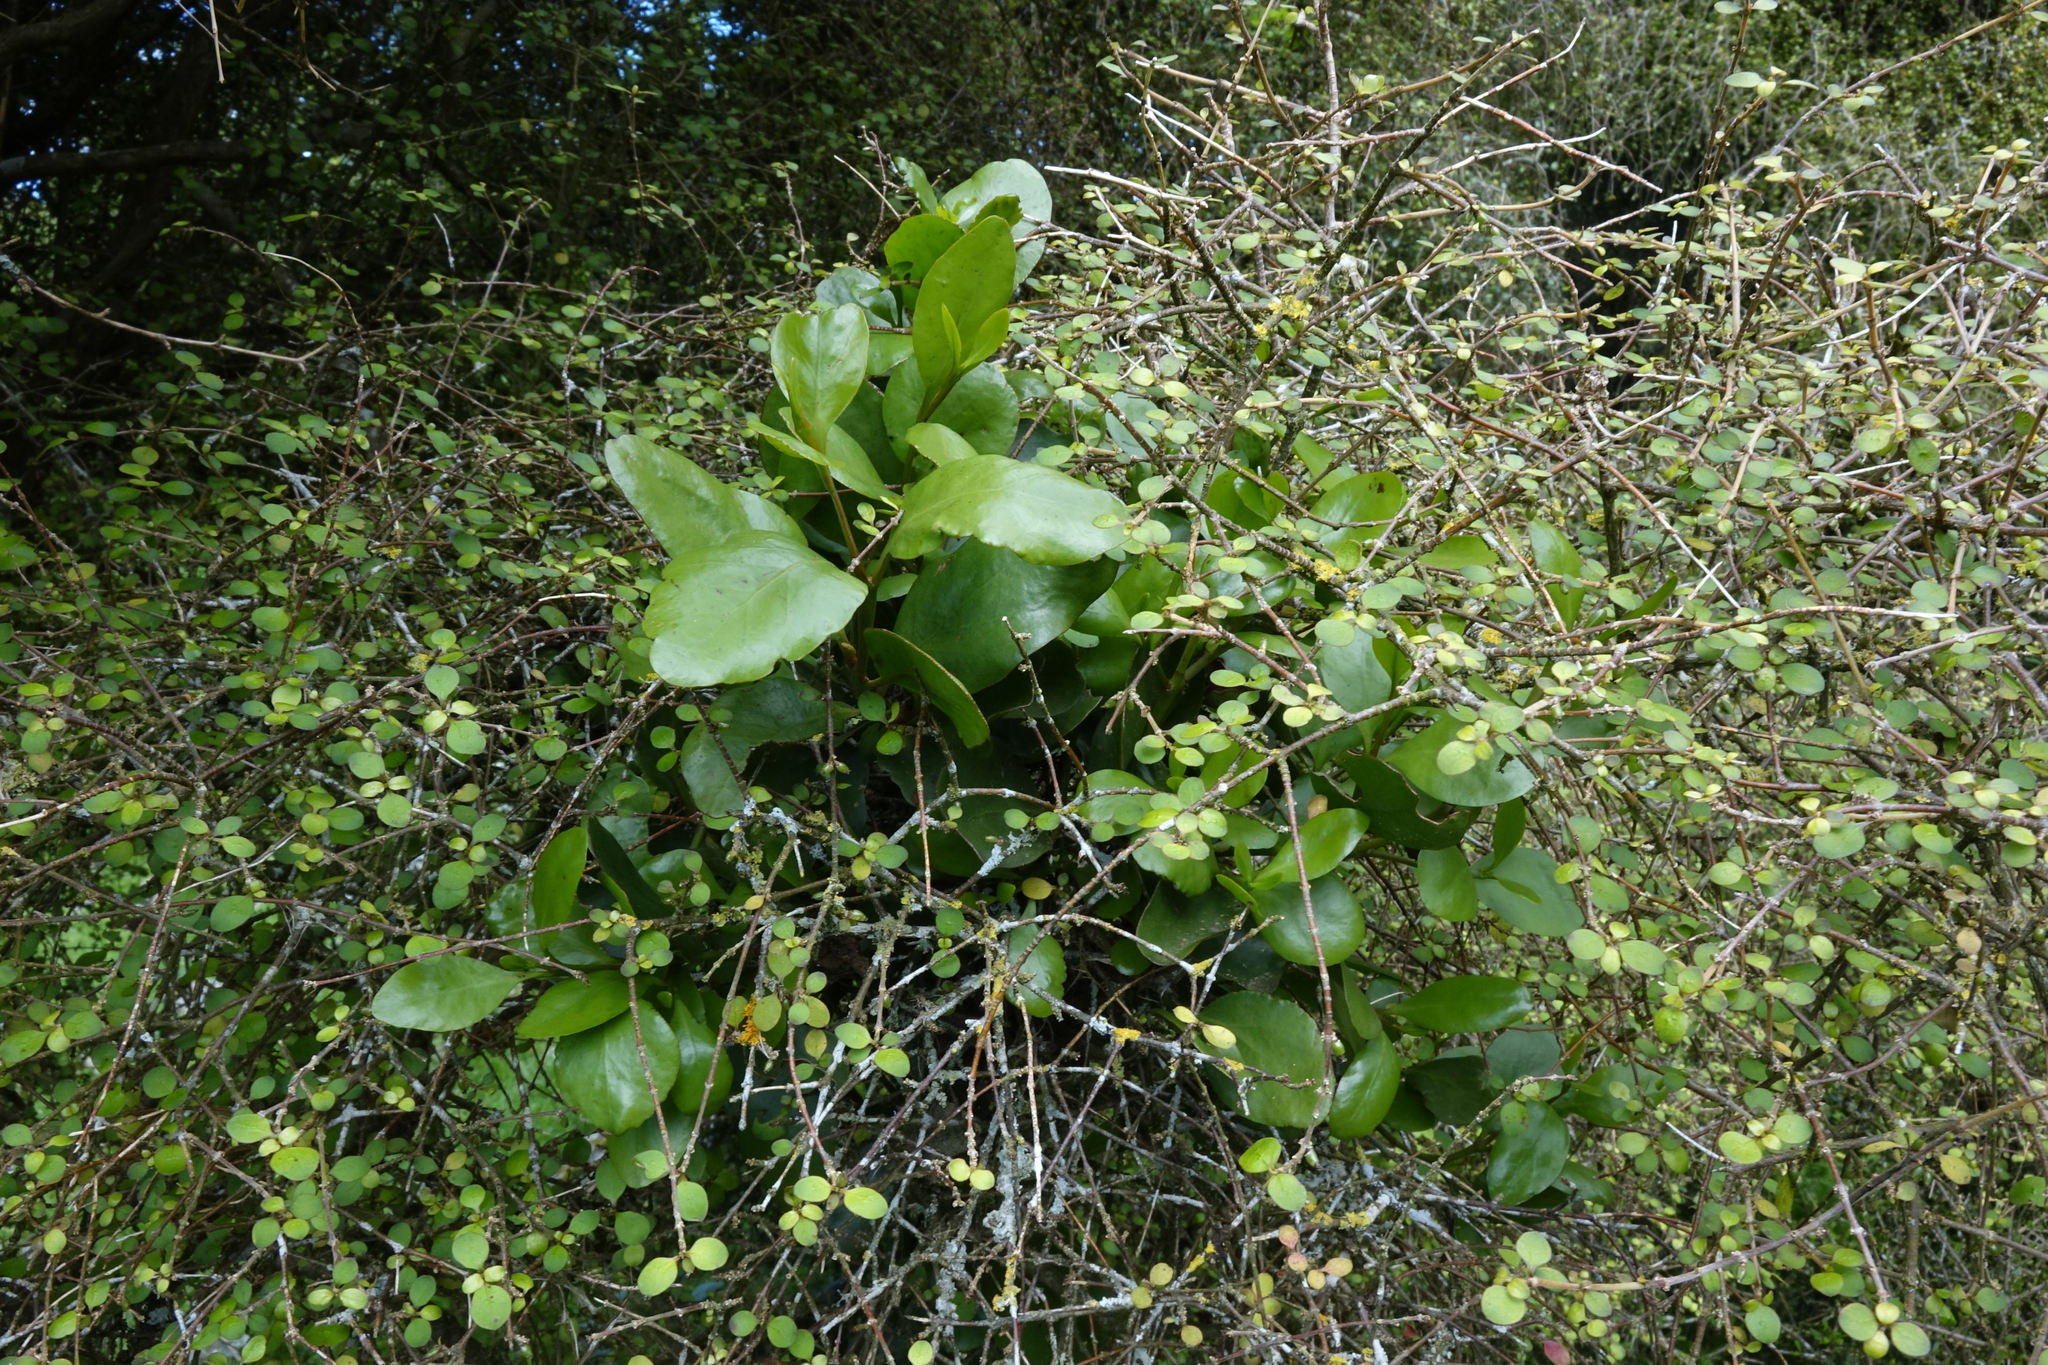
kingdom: Plantae
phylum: Tracheophyta
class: Magnoliopsida
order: Santalales
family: Loranthaceae
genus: Ileostylus
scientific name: Ileostylus micranthus
